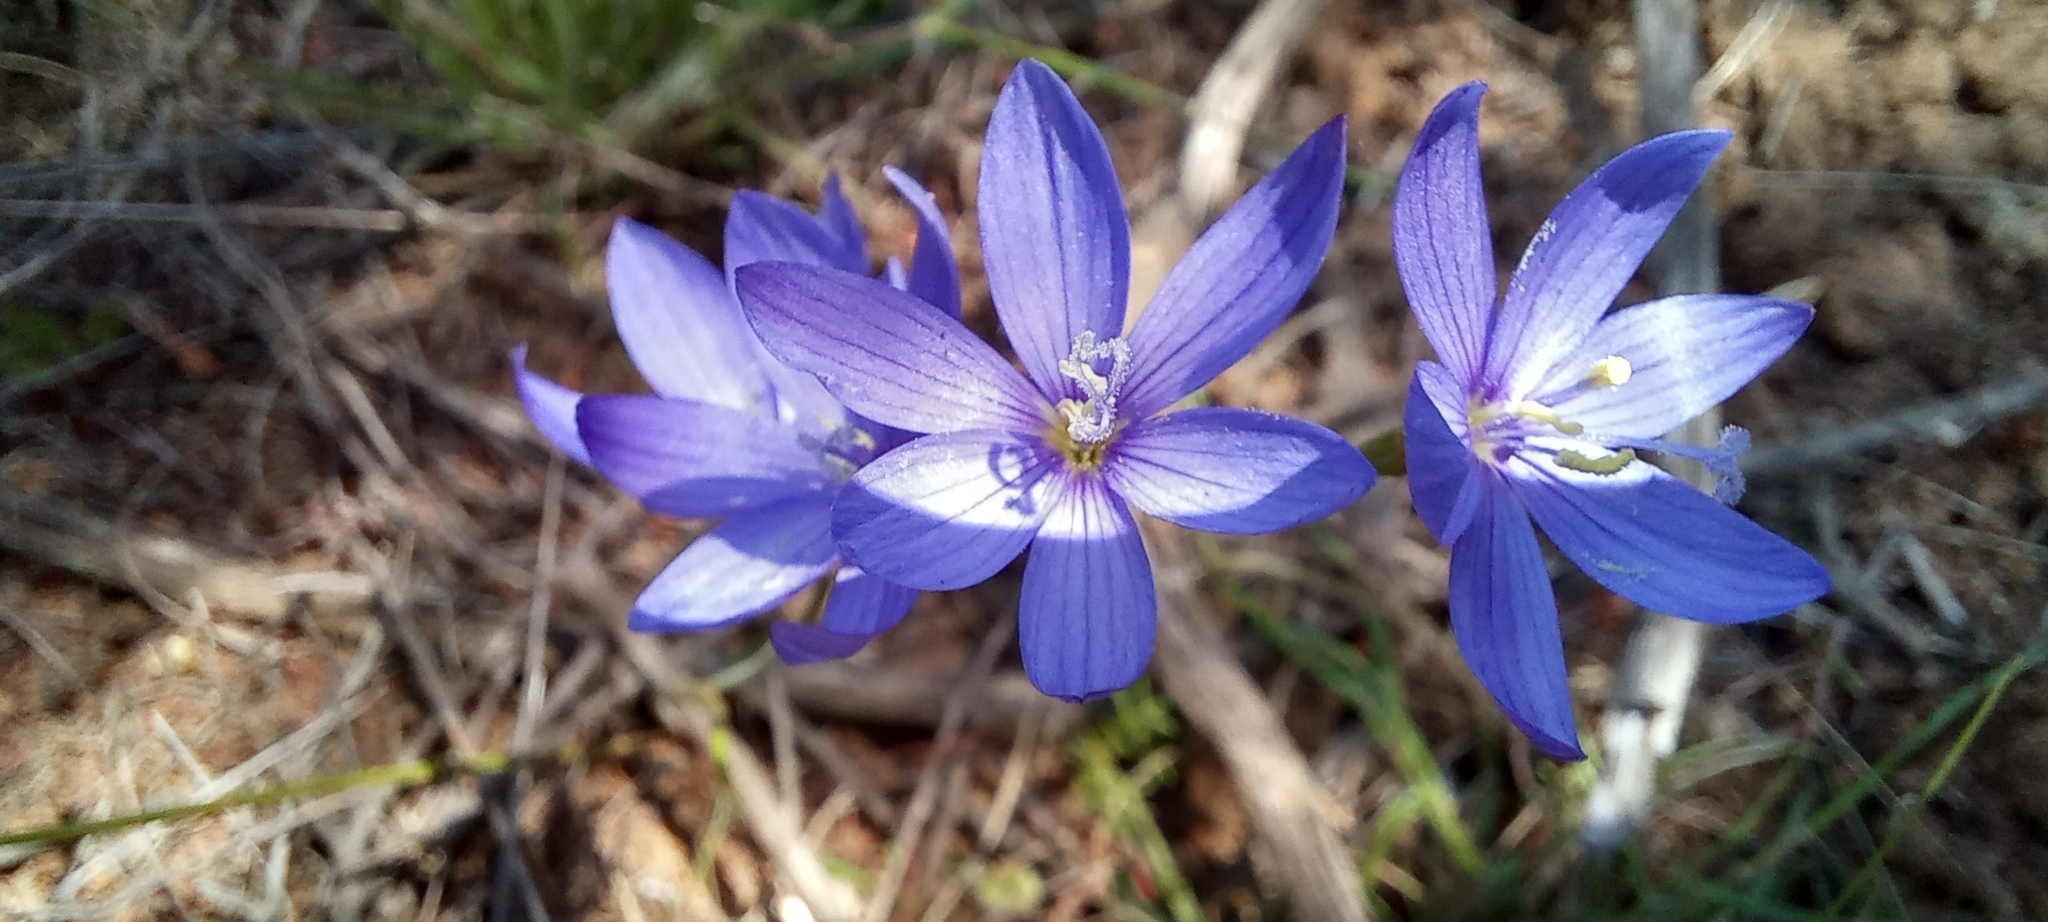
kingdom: Plantae
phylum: Tracheophyta
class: Liliopsida
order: Asparagales
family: Iridaceae
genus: Geissorhiza
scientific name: Geissorhiza aspera
